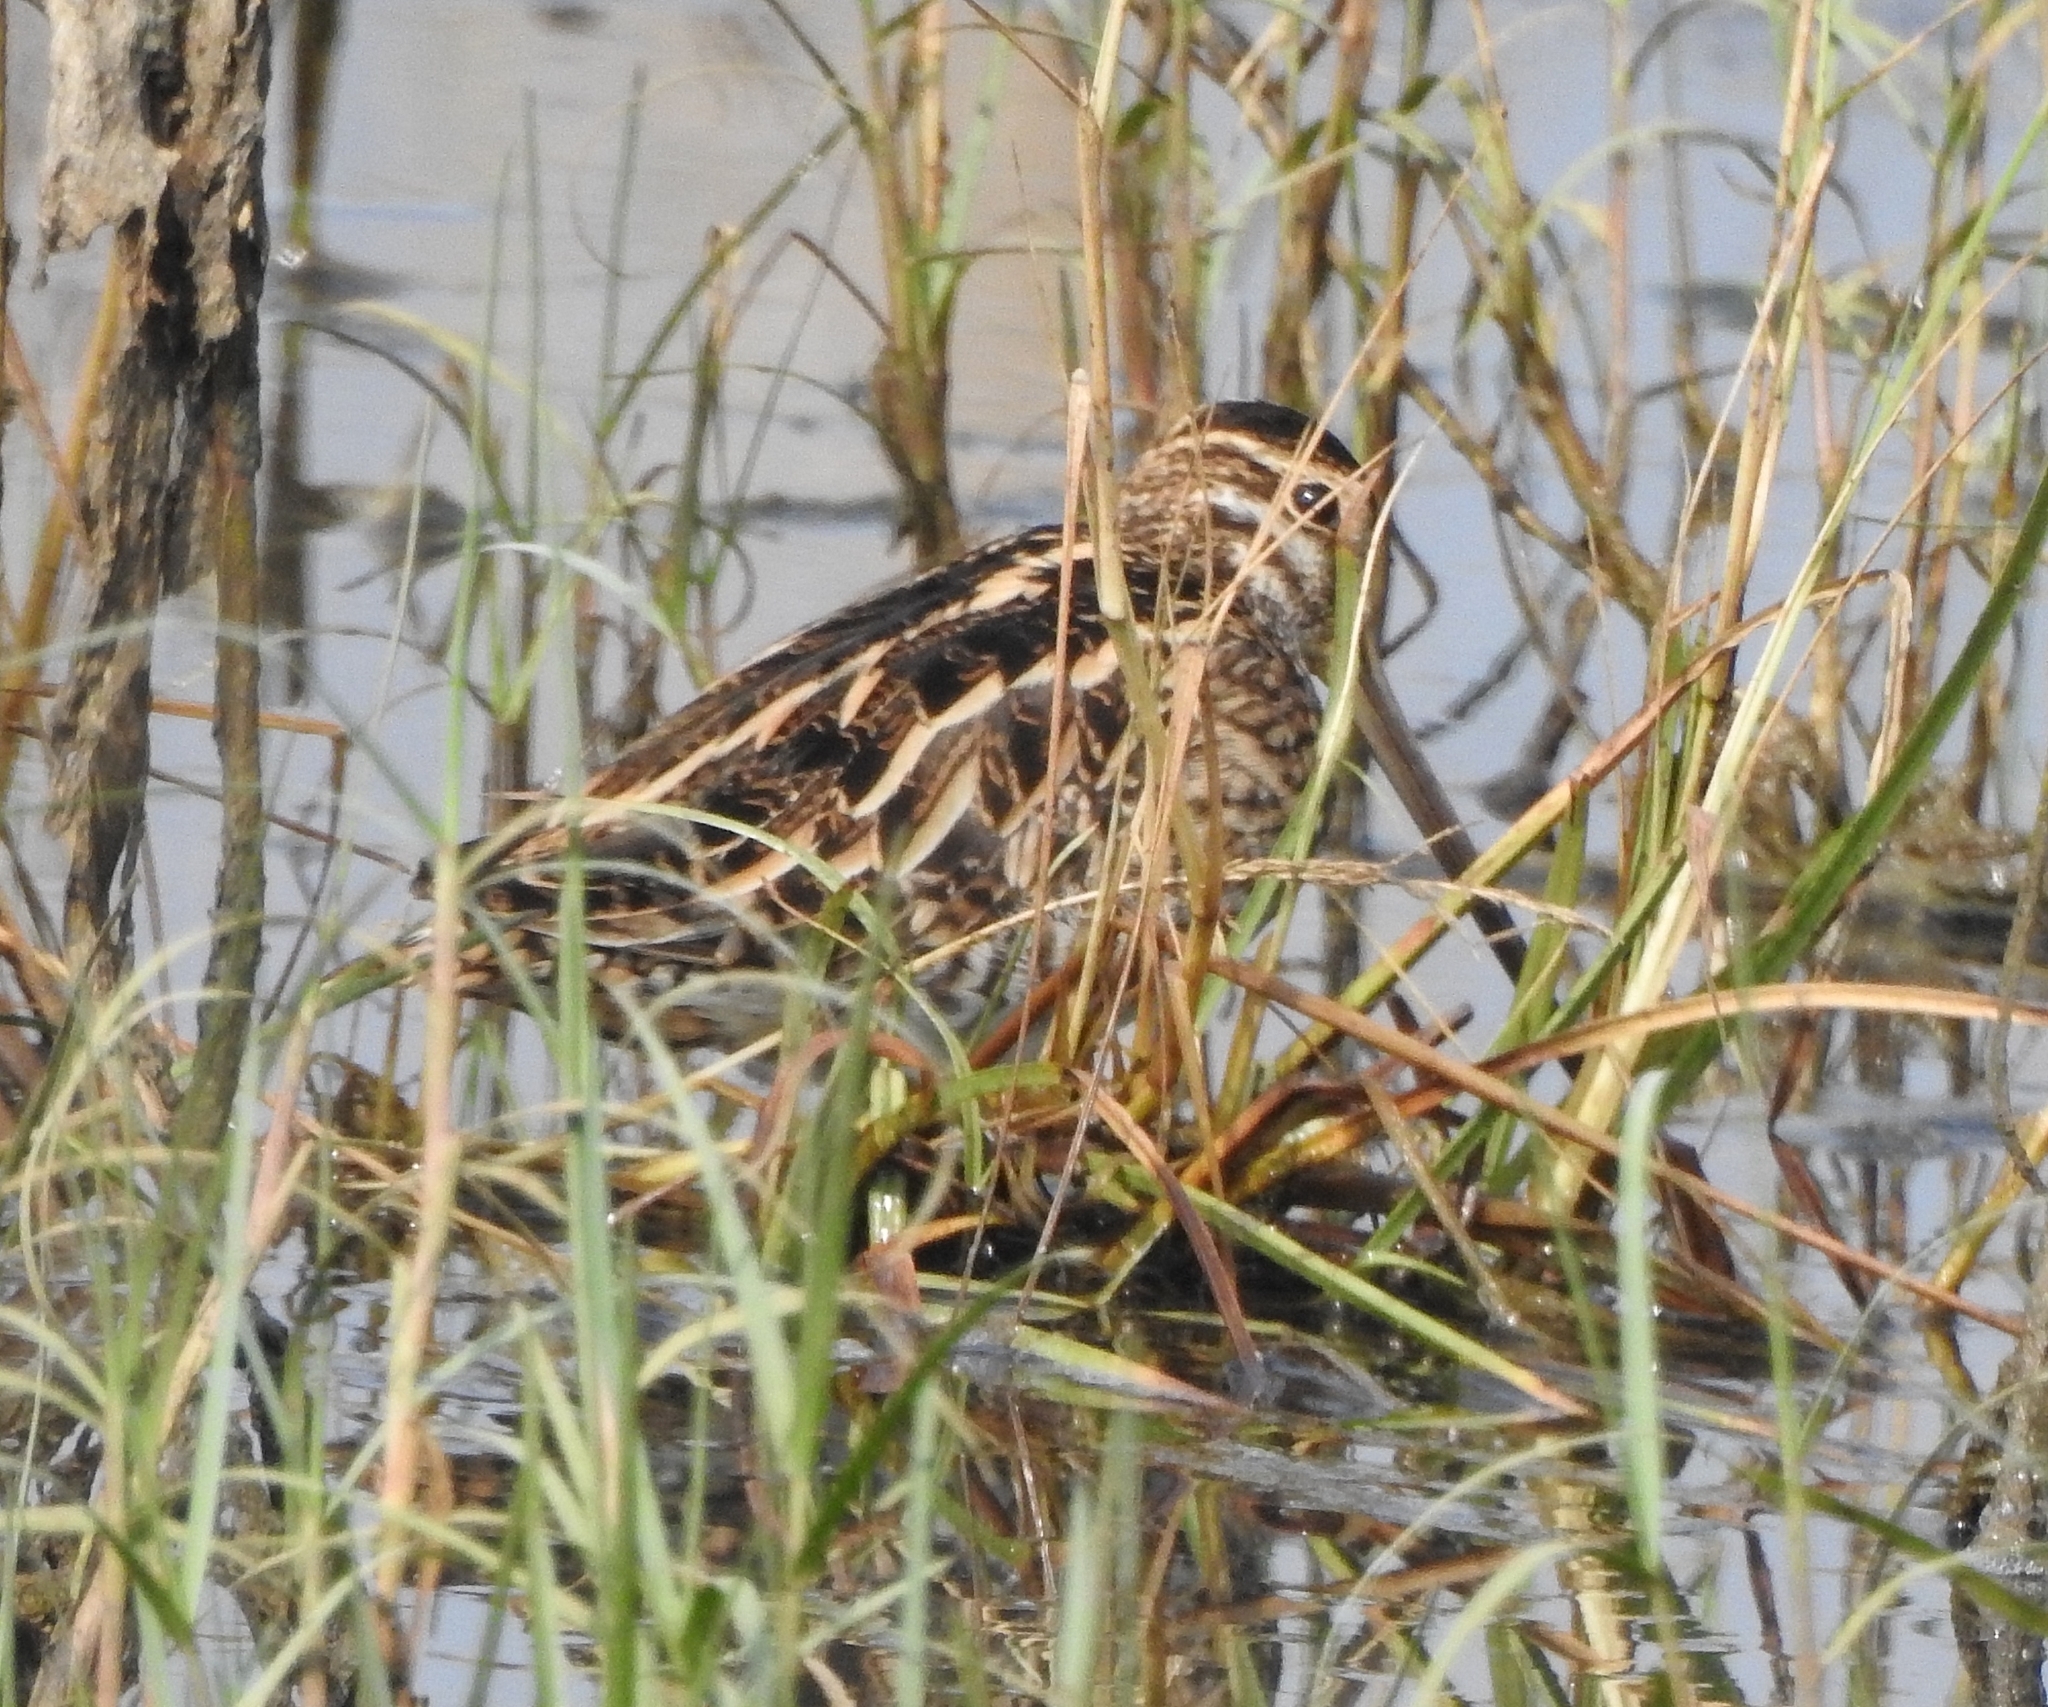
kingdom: Animalia
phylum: Chordata
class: Aves
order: Charadriiformes
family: Scolopacidae
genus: Gallinago
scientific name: Gallinago gallinago
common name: Common snipe
